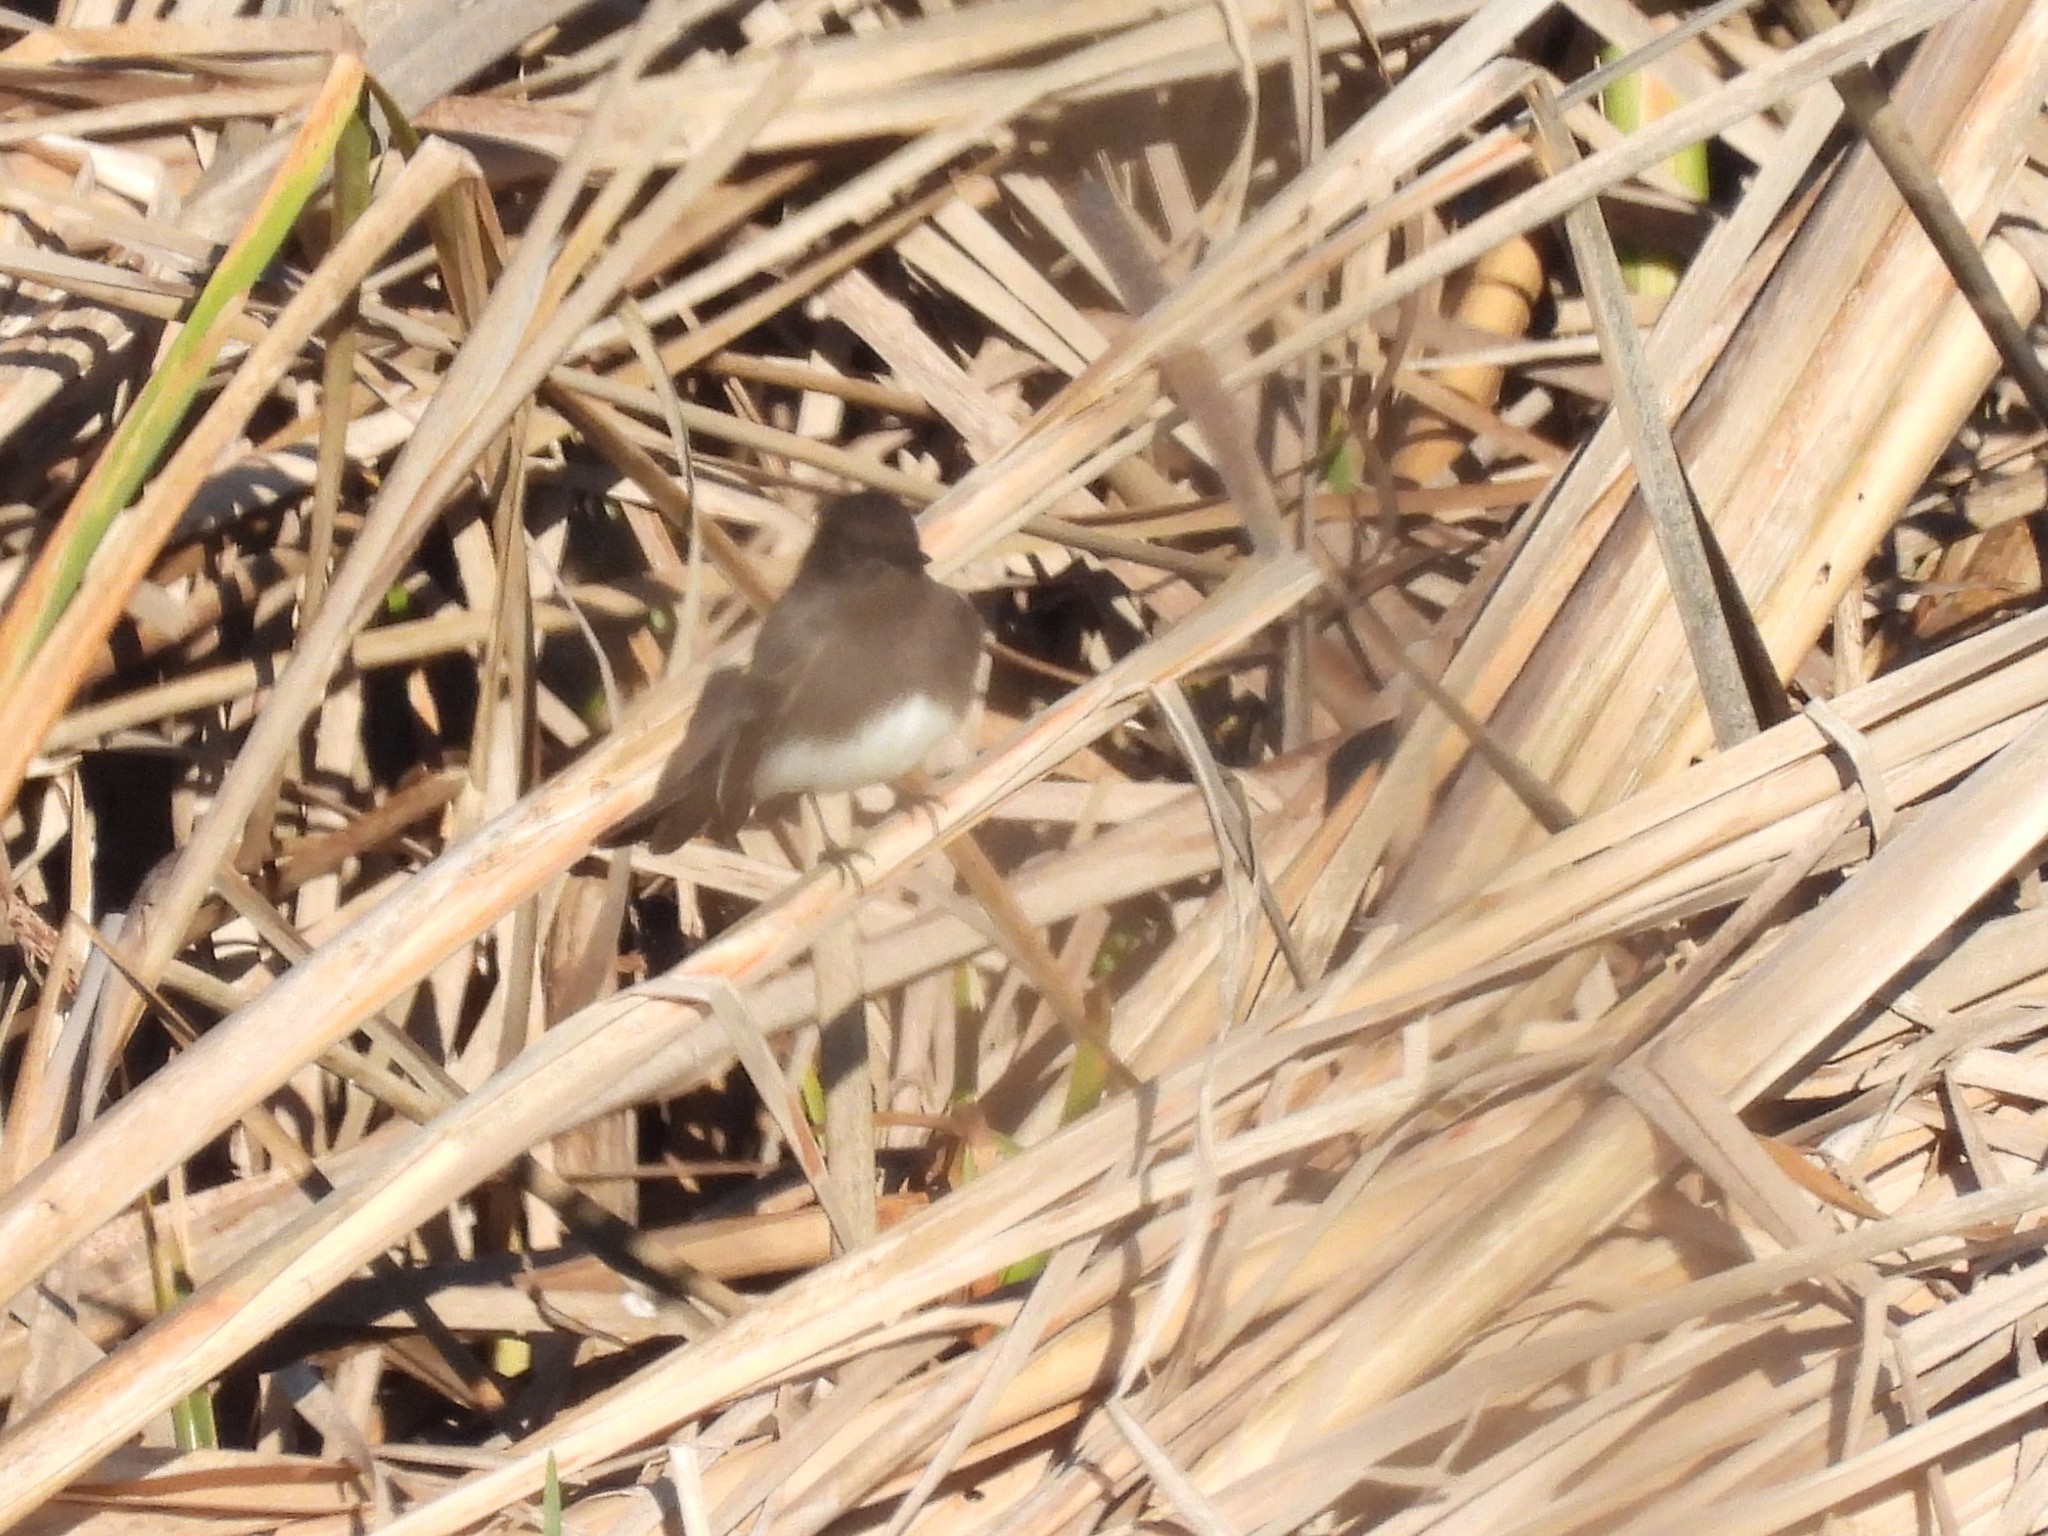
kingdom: Animalia
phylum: Chordata
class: Aves
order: Passeriformes
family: Tyrannidae
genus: Sayornis
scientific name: Sayornis nigricans
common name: Black phoebe
